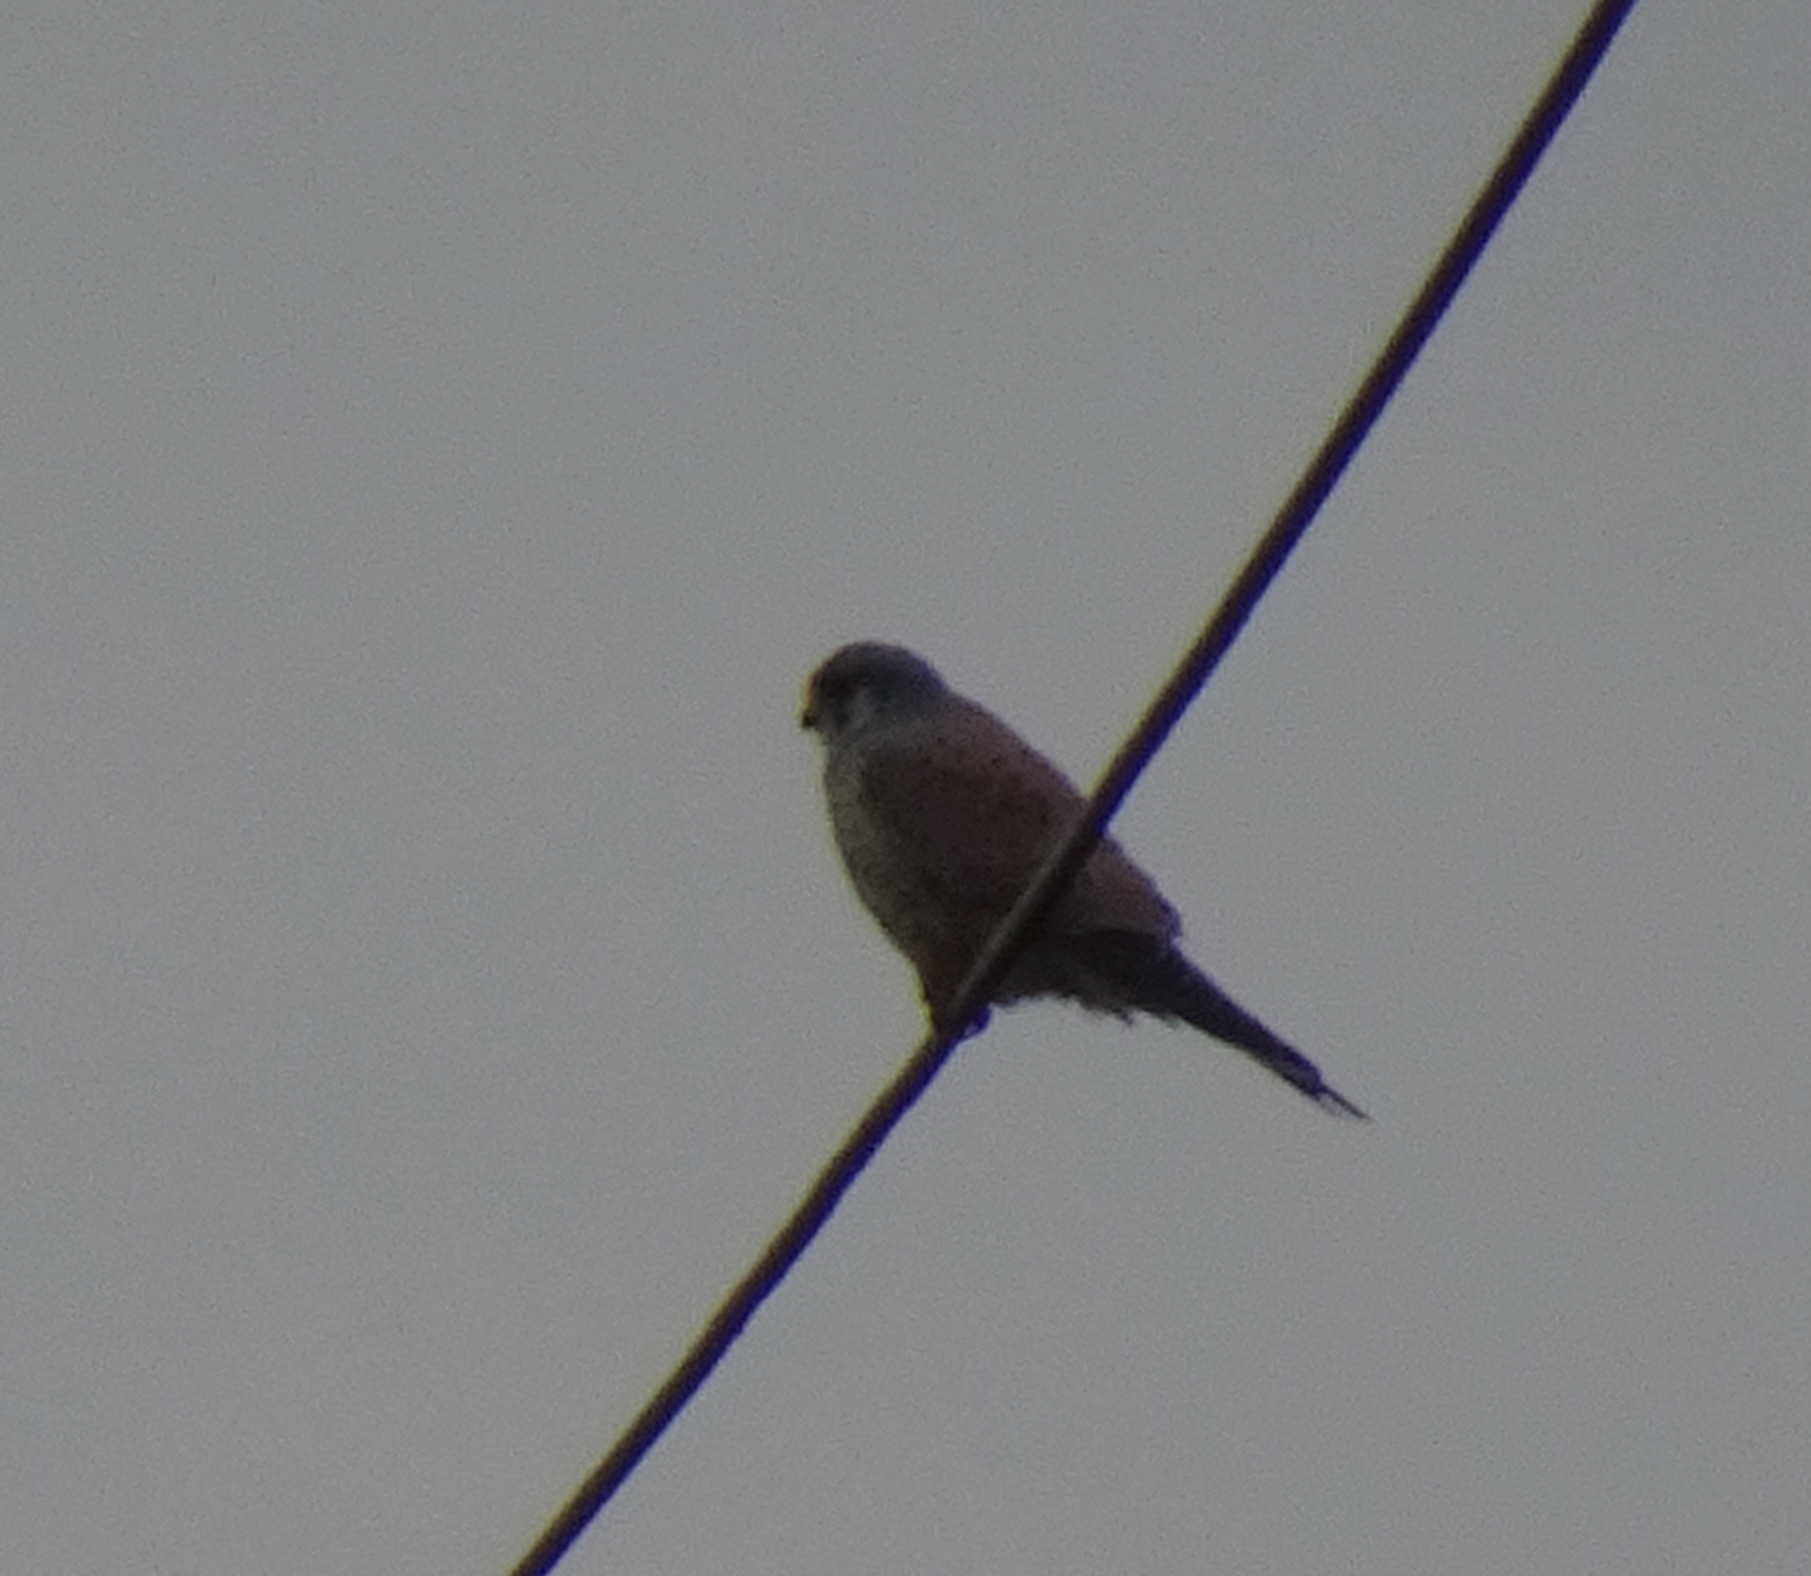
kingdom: Animalia
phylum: Chordata
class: Aves
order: Falconiformes
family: Falconidae
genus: Falco
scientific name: Falco tinnunculus
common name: Common kestrel
